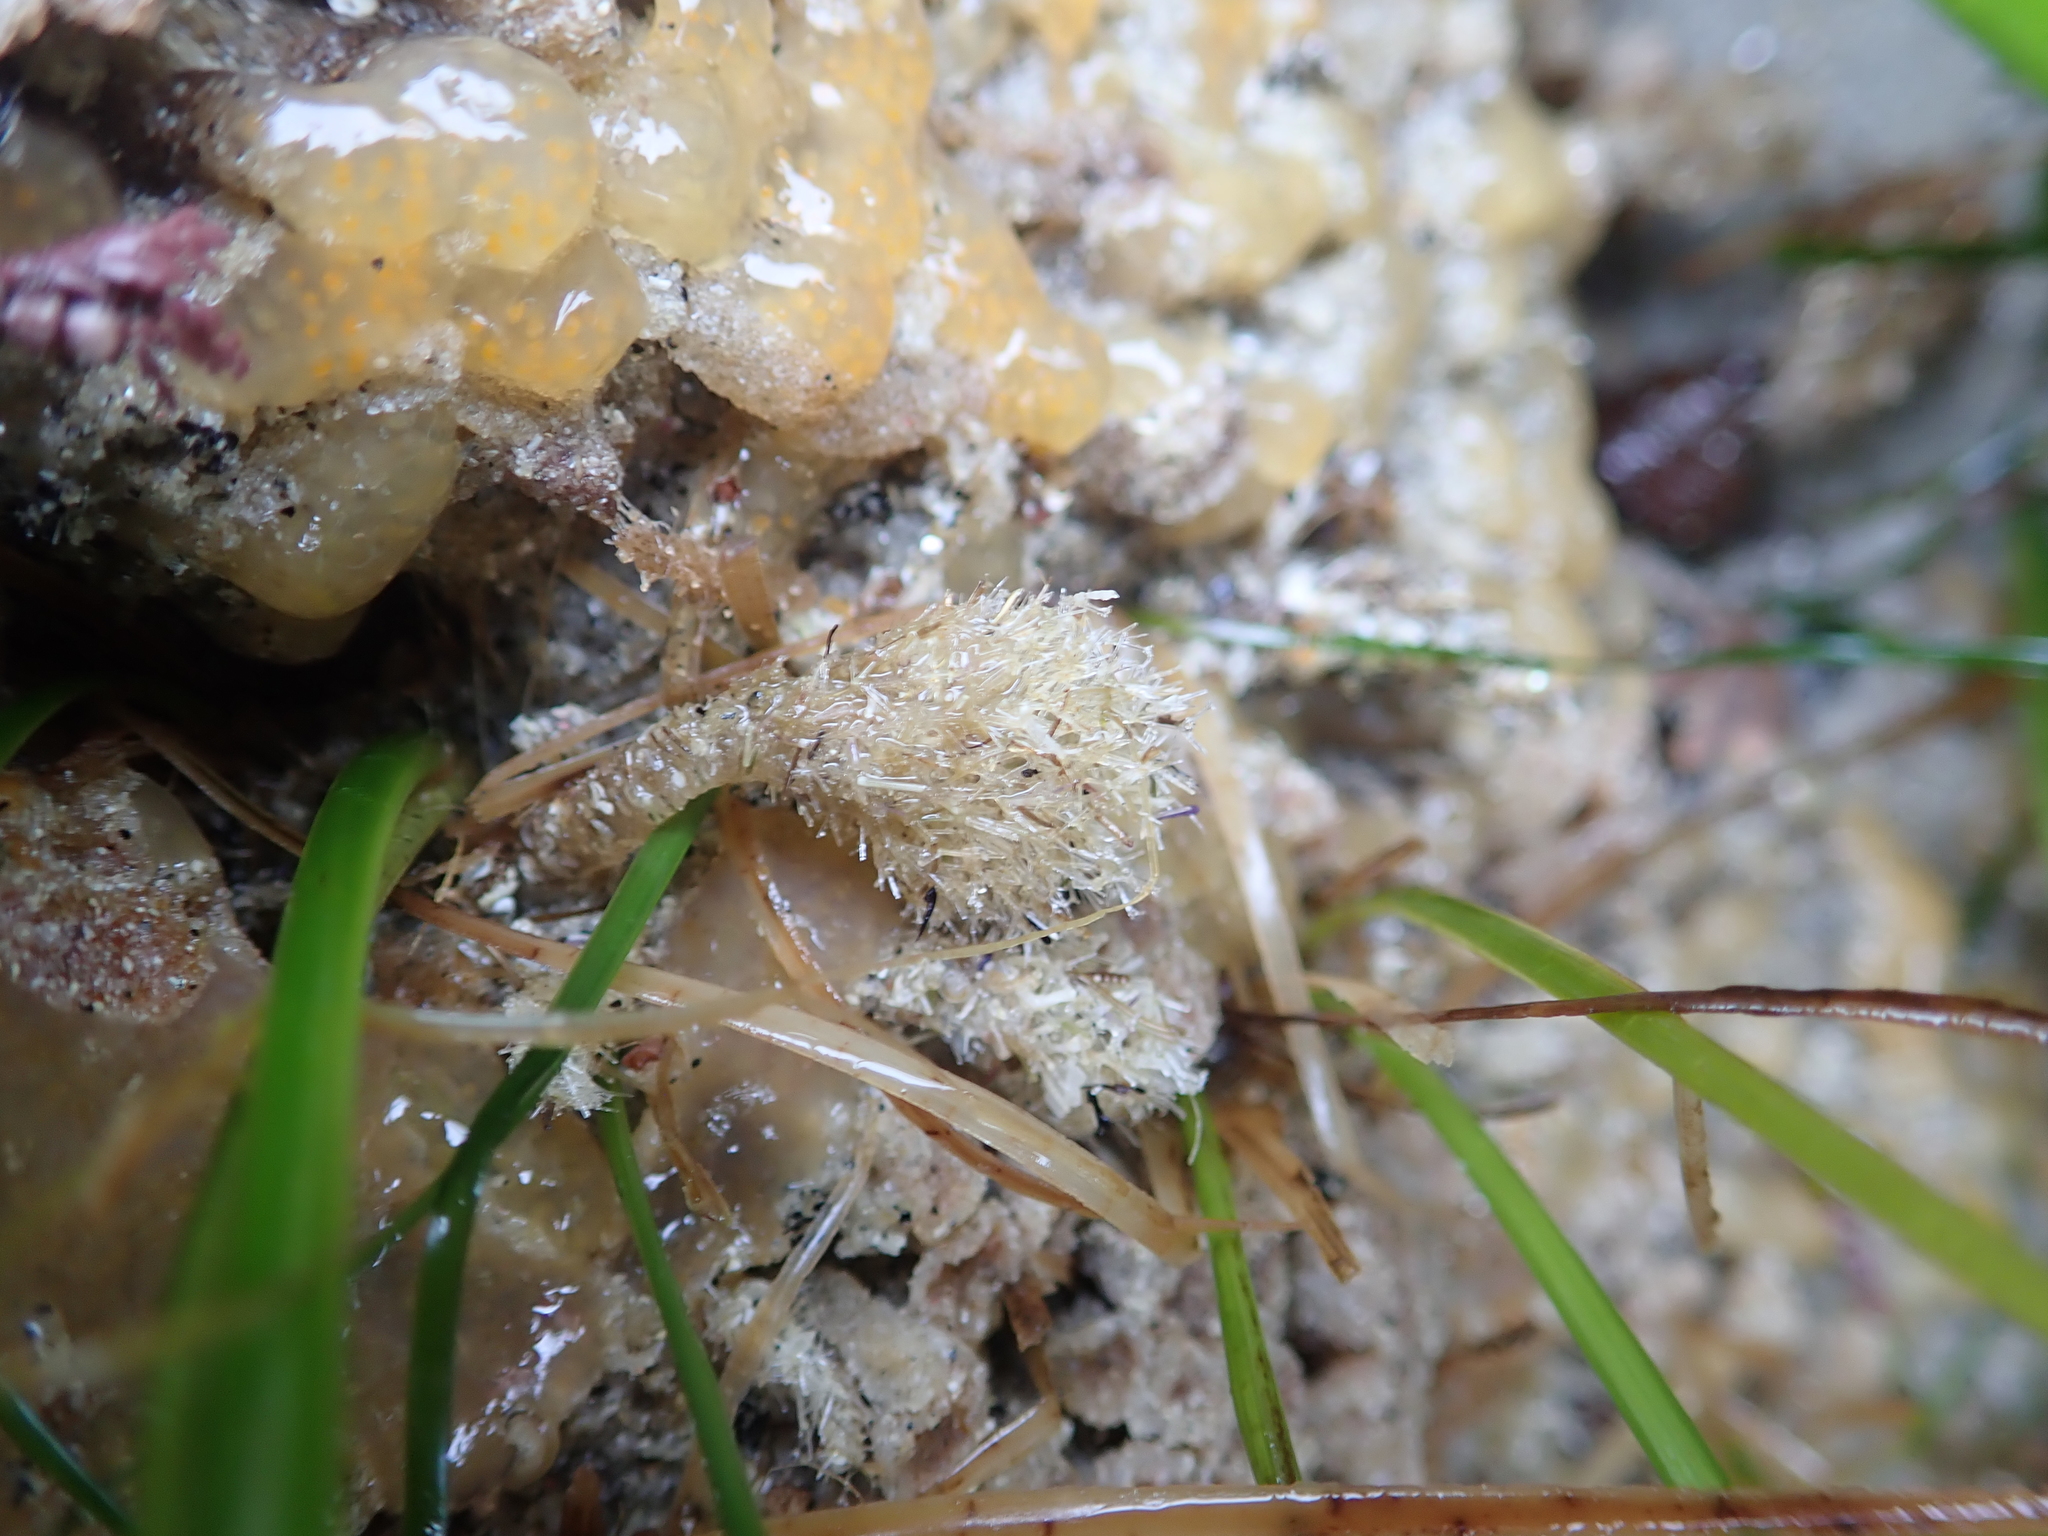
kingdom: Animalia
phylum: Annelida
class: Polychaeta
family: Terebellidae
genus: Pista
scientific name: Pista elongata
